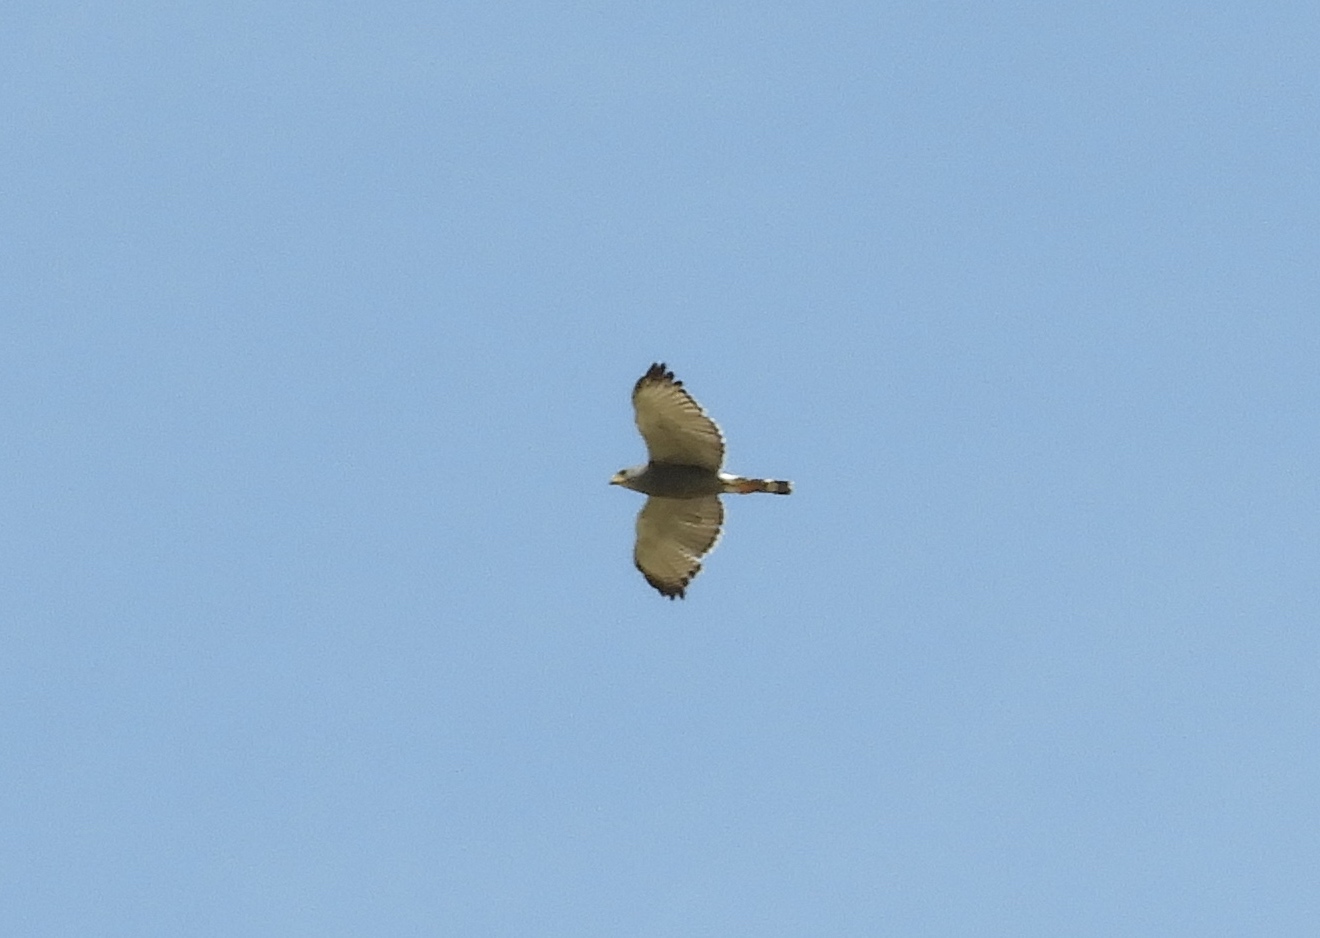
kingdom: Animalia
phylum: Chordata
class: Aves
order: Accipitriformes
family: Accipitridae
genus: Buteo
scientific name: Buteo nitidus
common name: Grey-lined hawk
